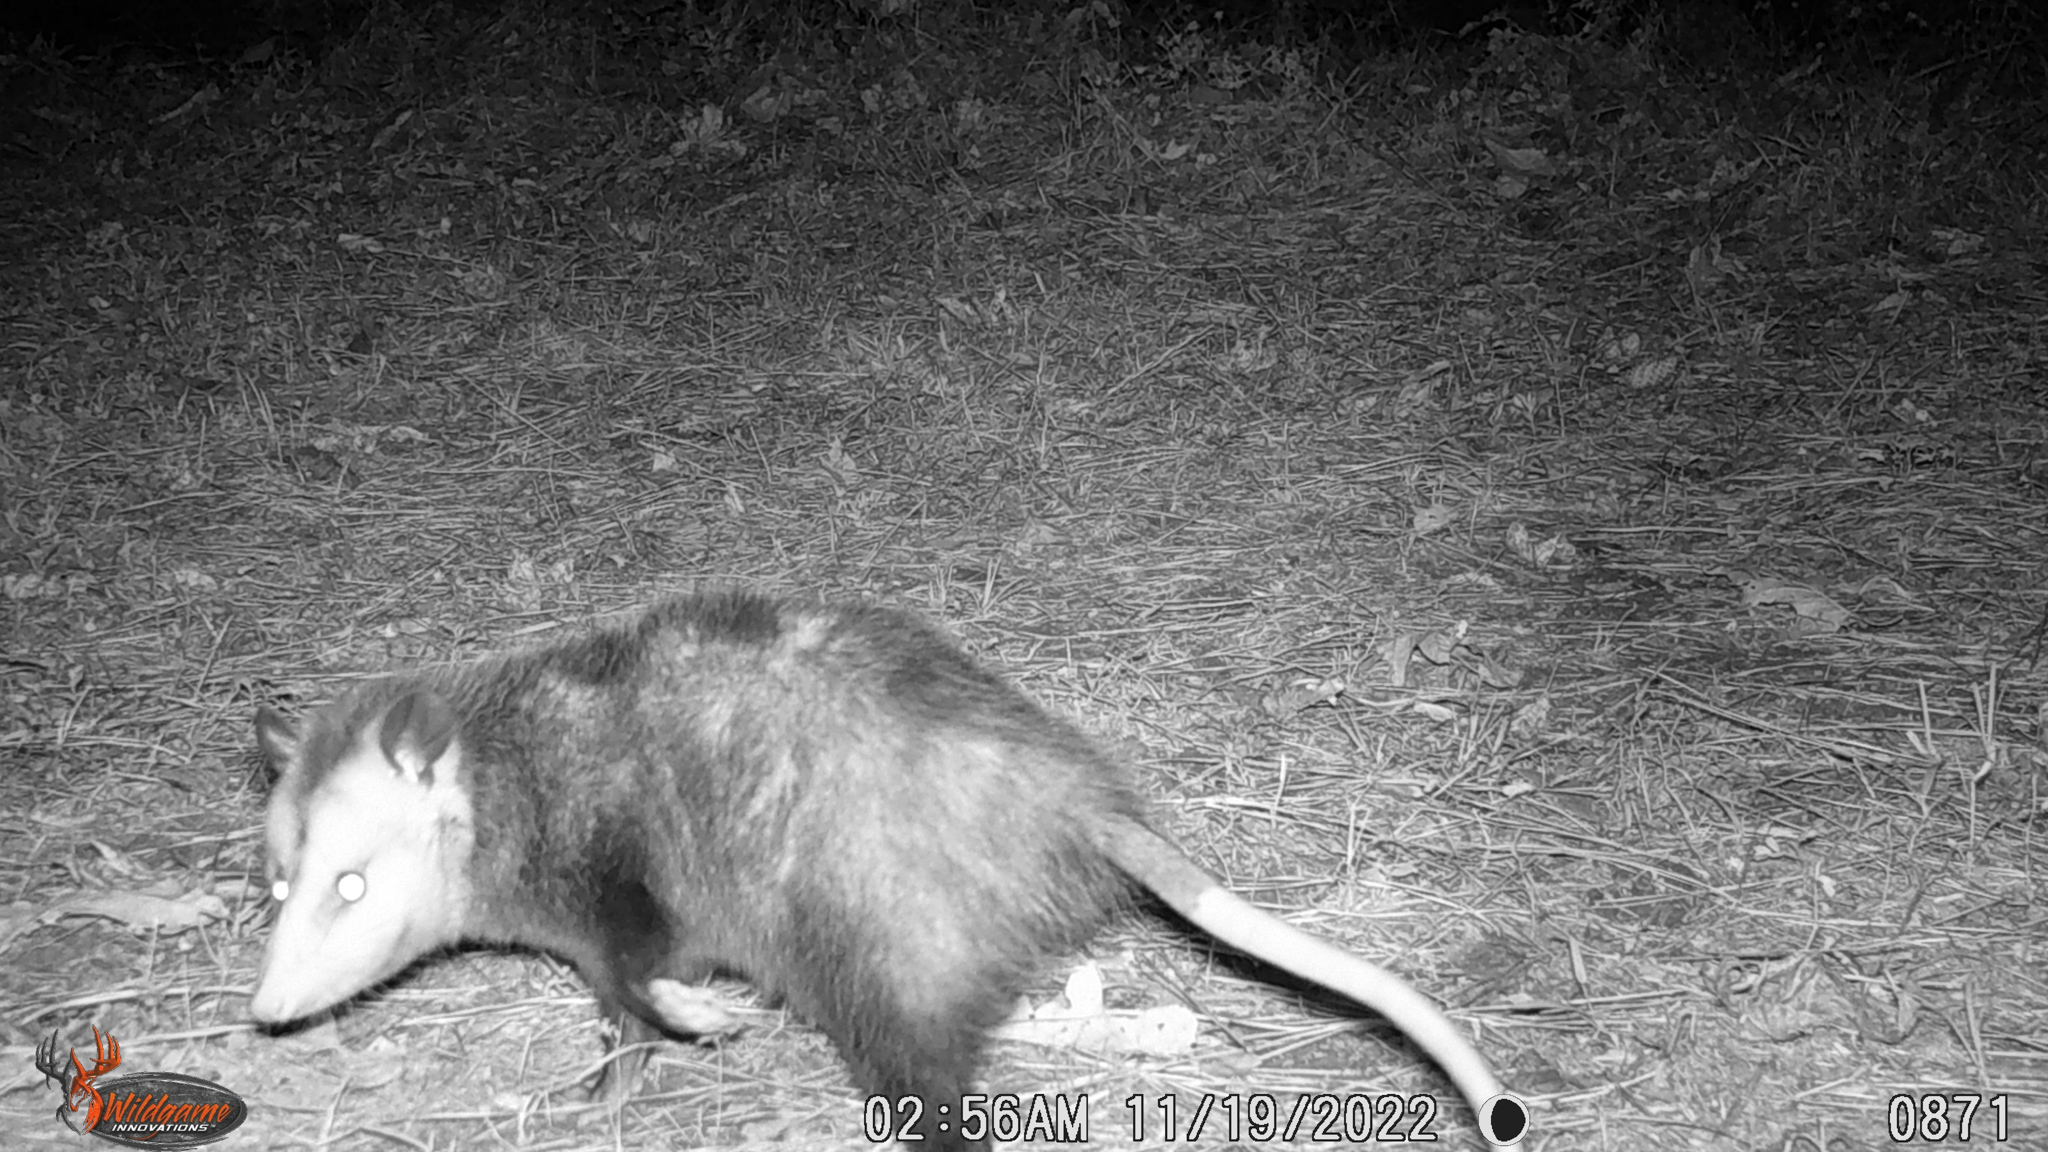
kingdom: Animalia
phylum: Chordata
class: Mammalia
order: Didelphimorphia
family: Didelphidae
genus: Didelphis
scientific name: Didelphis virginiana
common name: Virginia opossum
